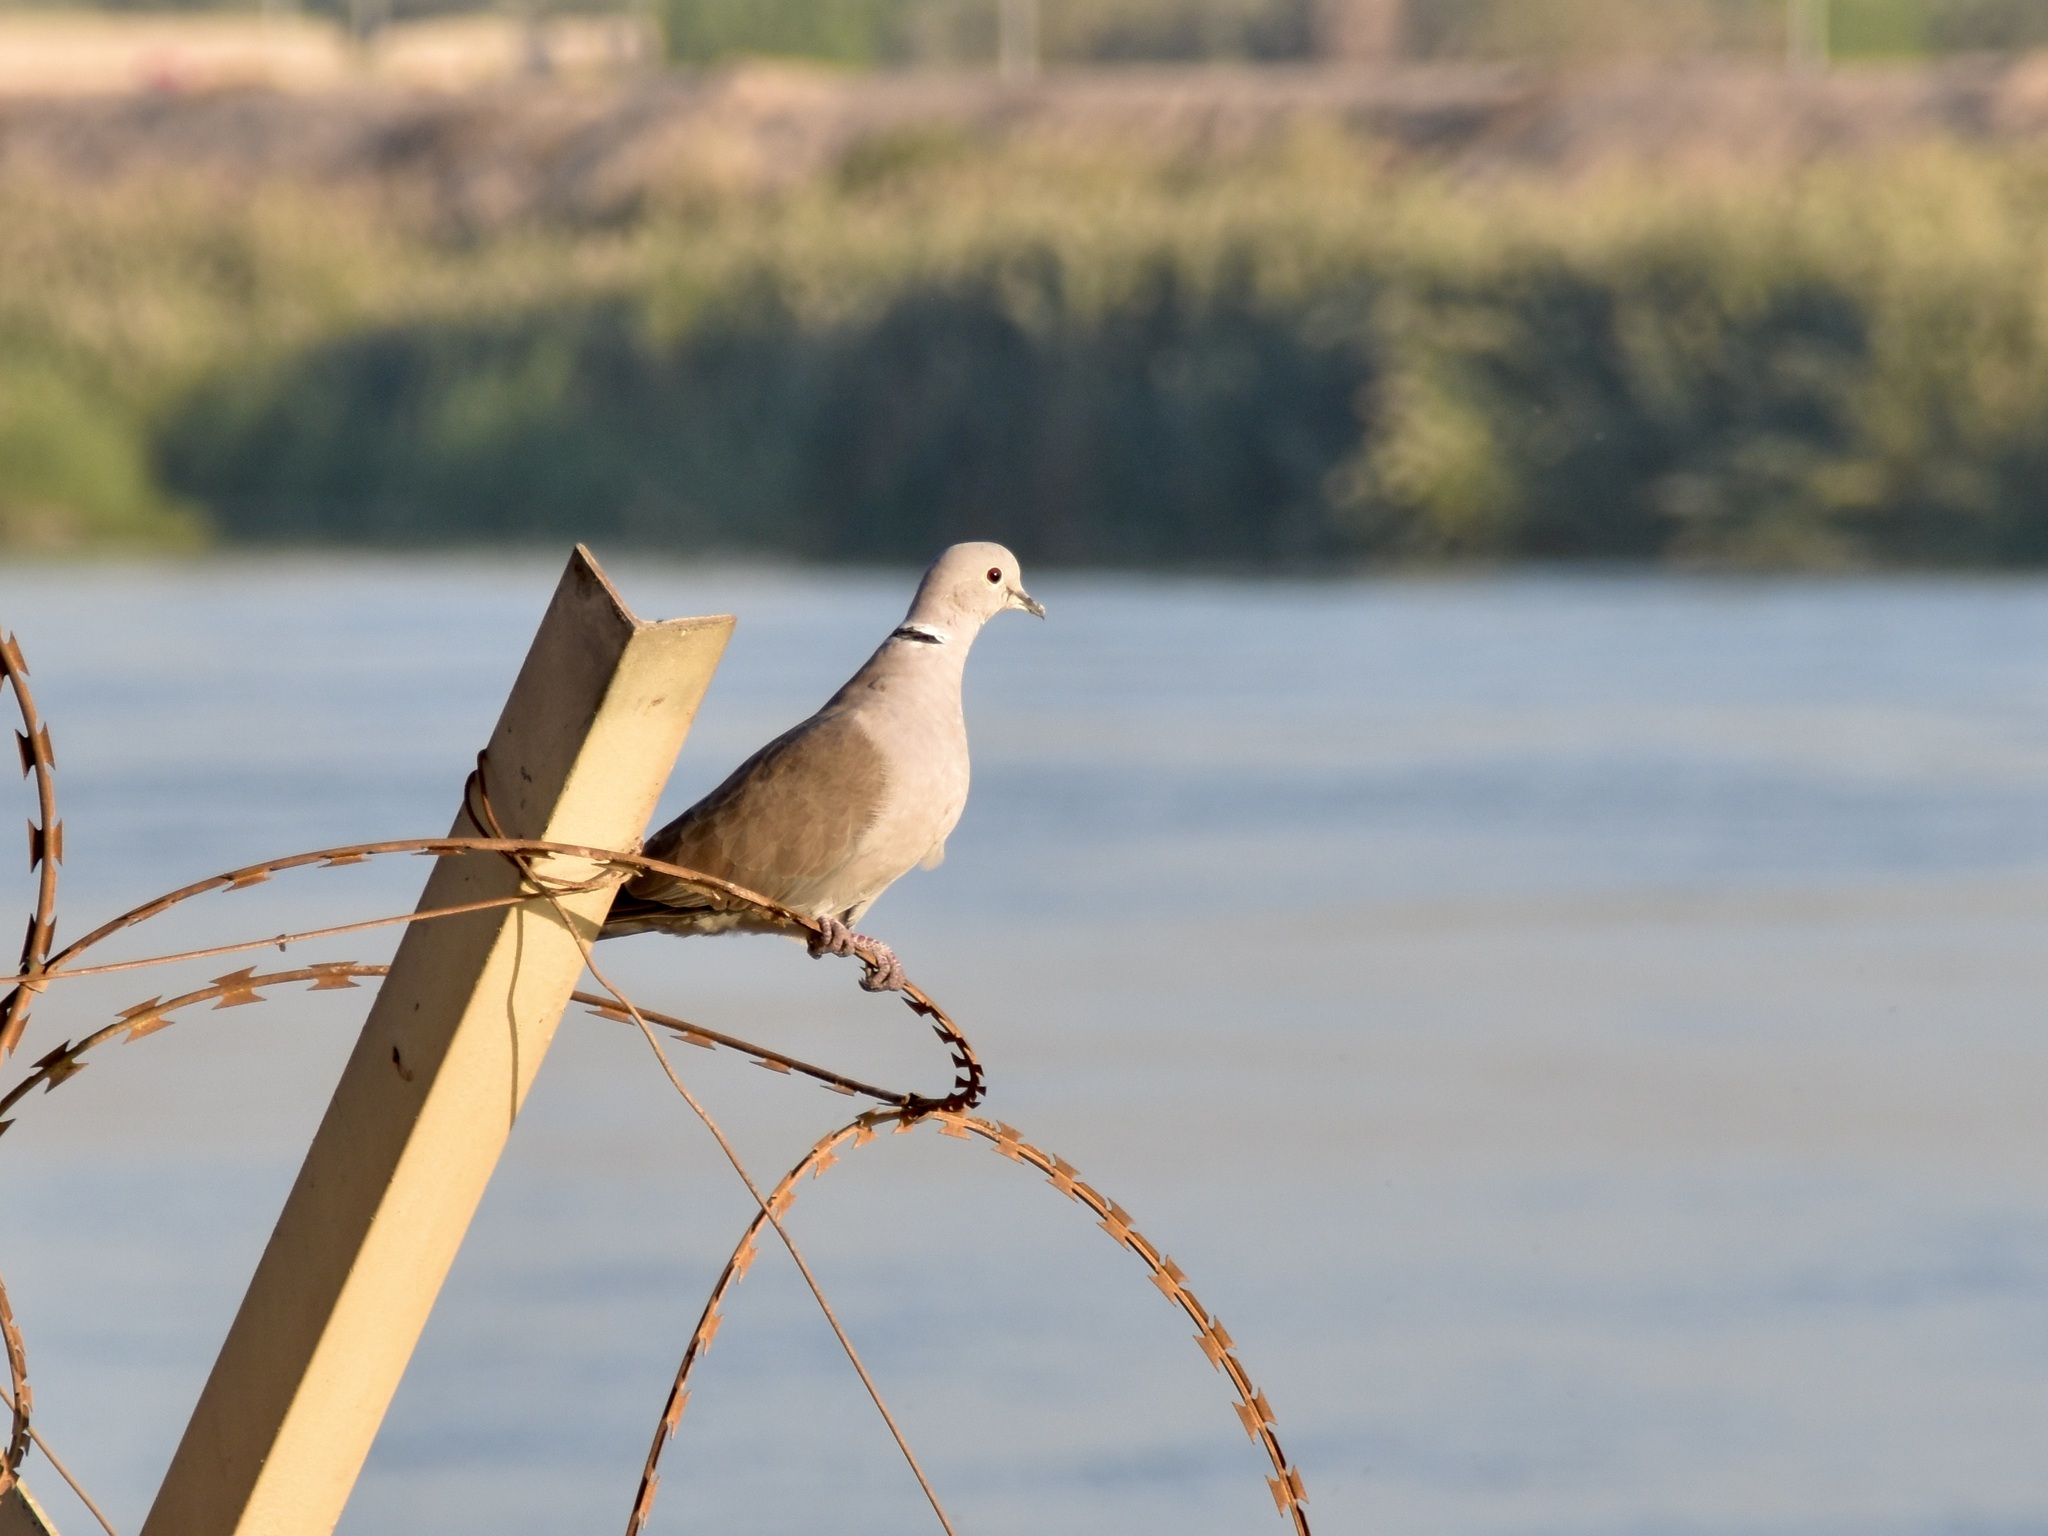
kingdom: Animalia
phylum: Chordata
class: Aves
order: Columbiformes
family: Columbidae
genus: Streptopelia
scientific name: Streptopelia decaocto
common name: Eurasian collared dove
